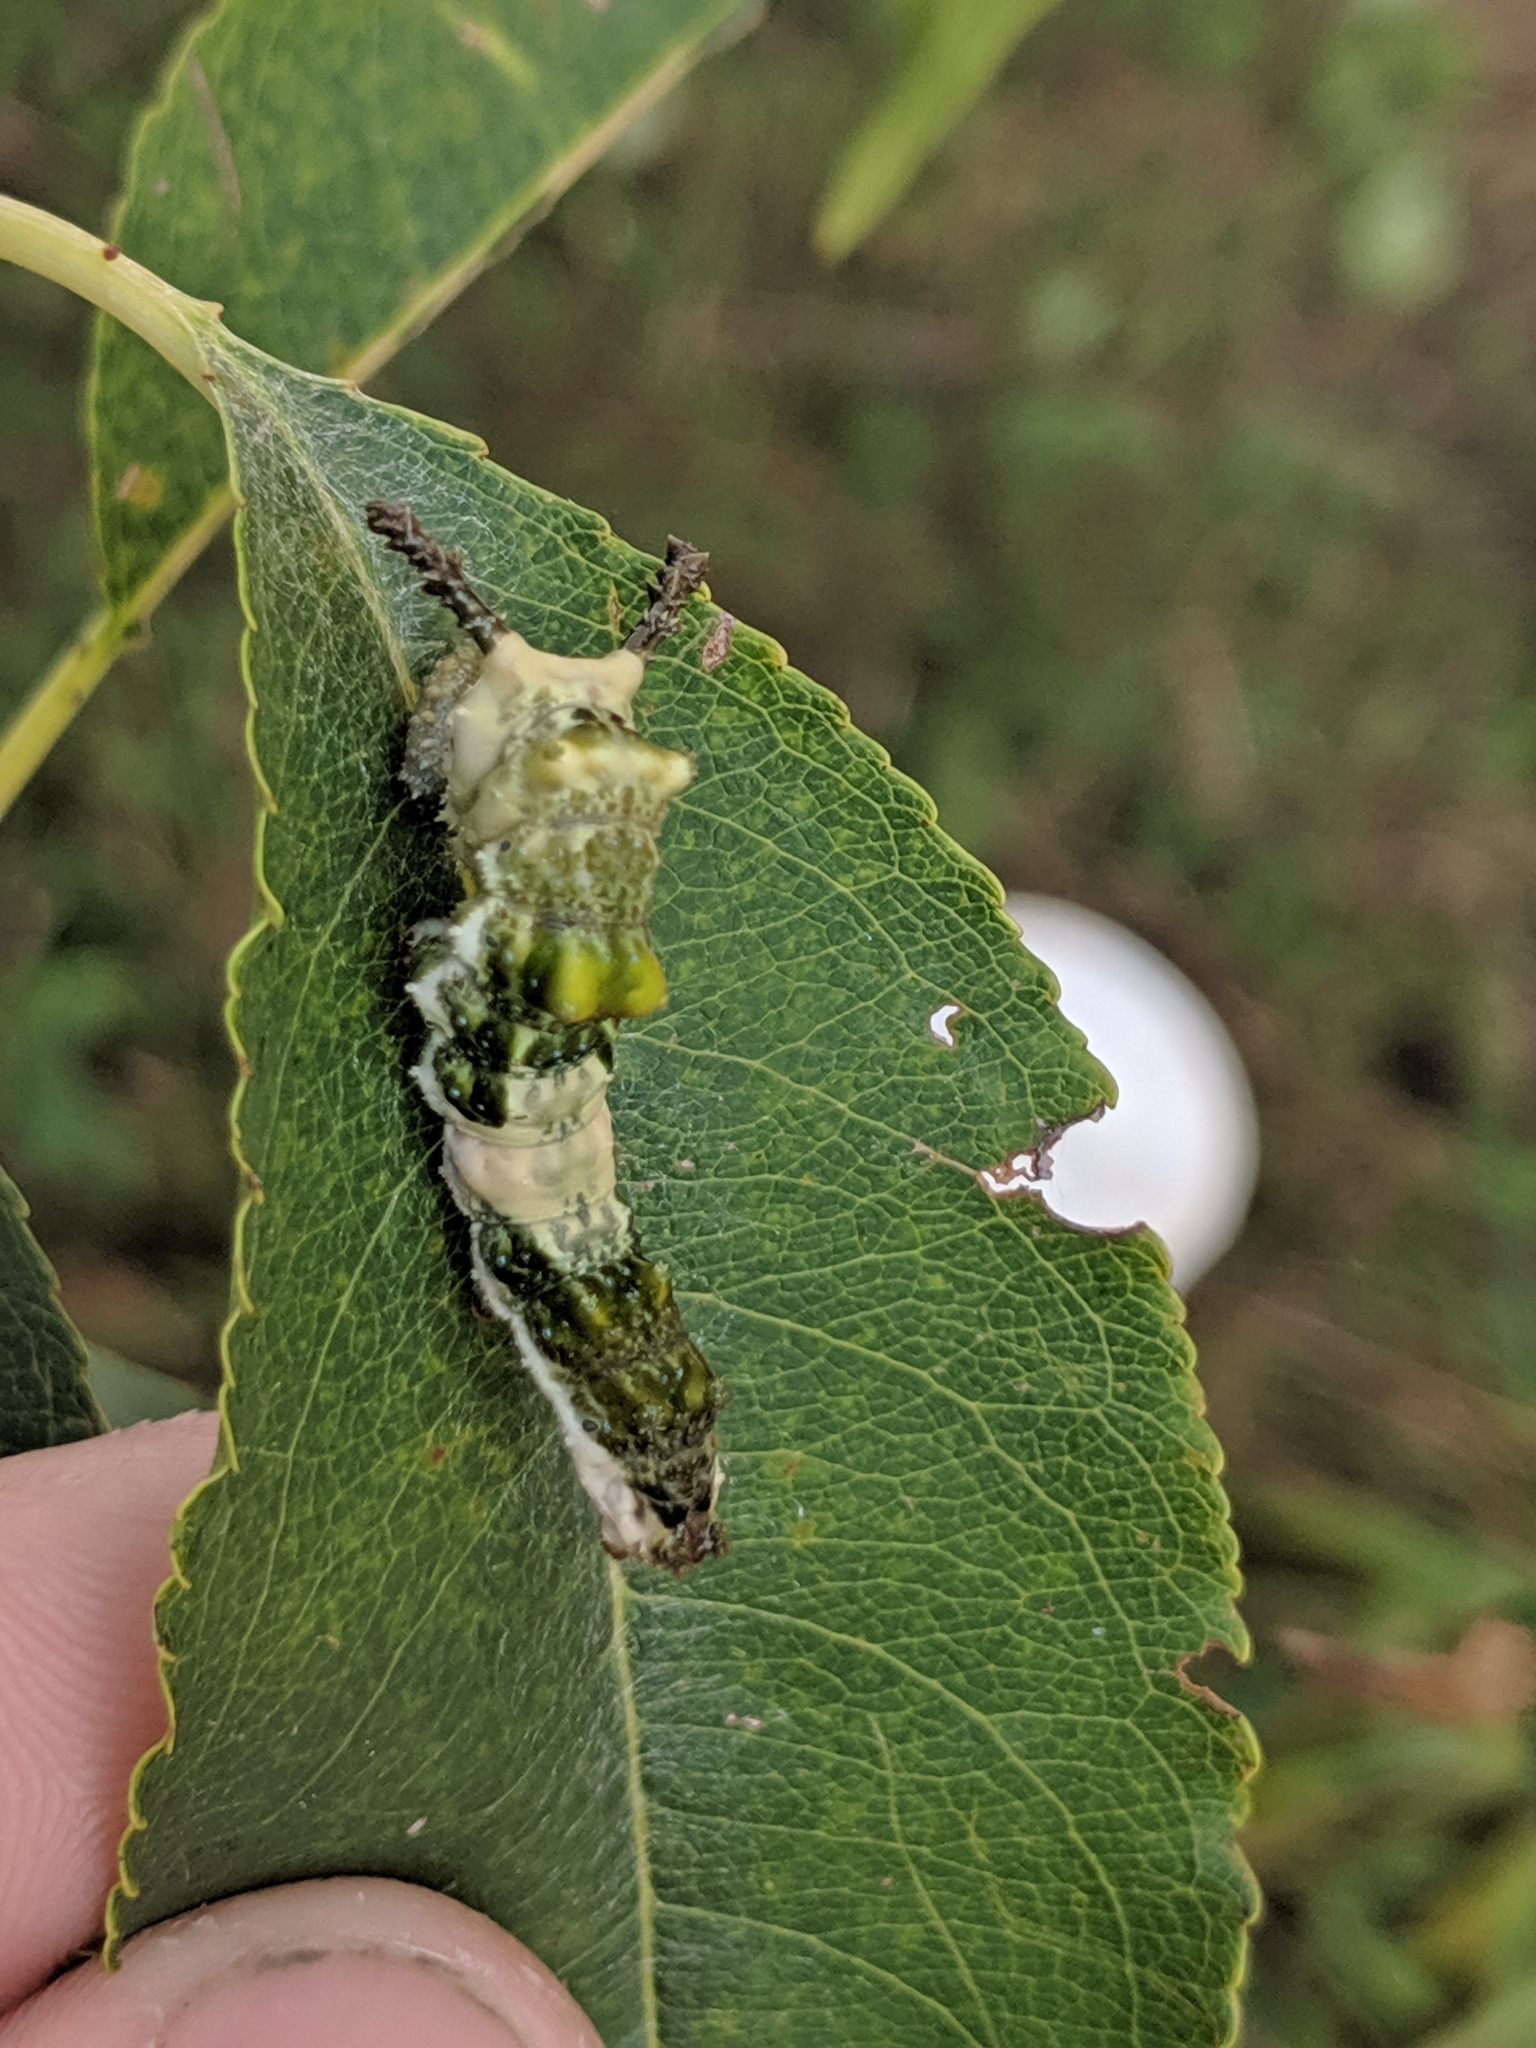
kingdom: Animalia
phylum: Arthropoda
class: Insecta
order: Lepidoptera
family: Nymphalidae
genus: Limenitis
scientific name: Limenitis archippus
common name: Viceroy
